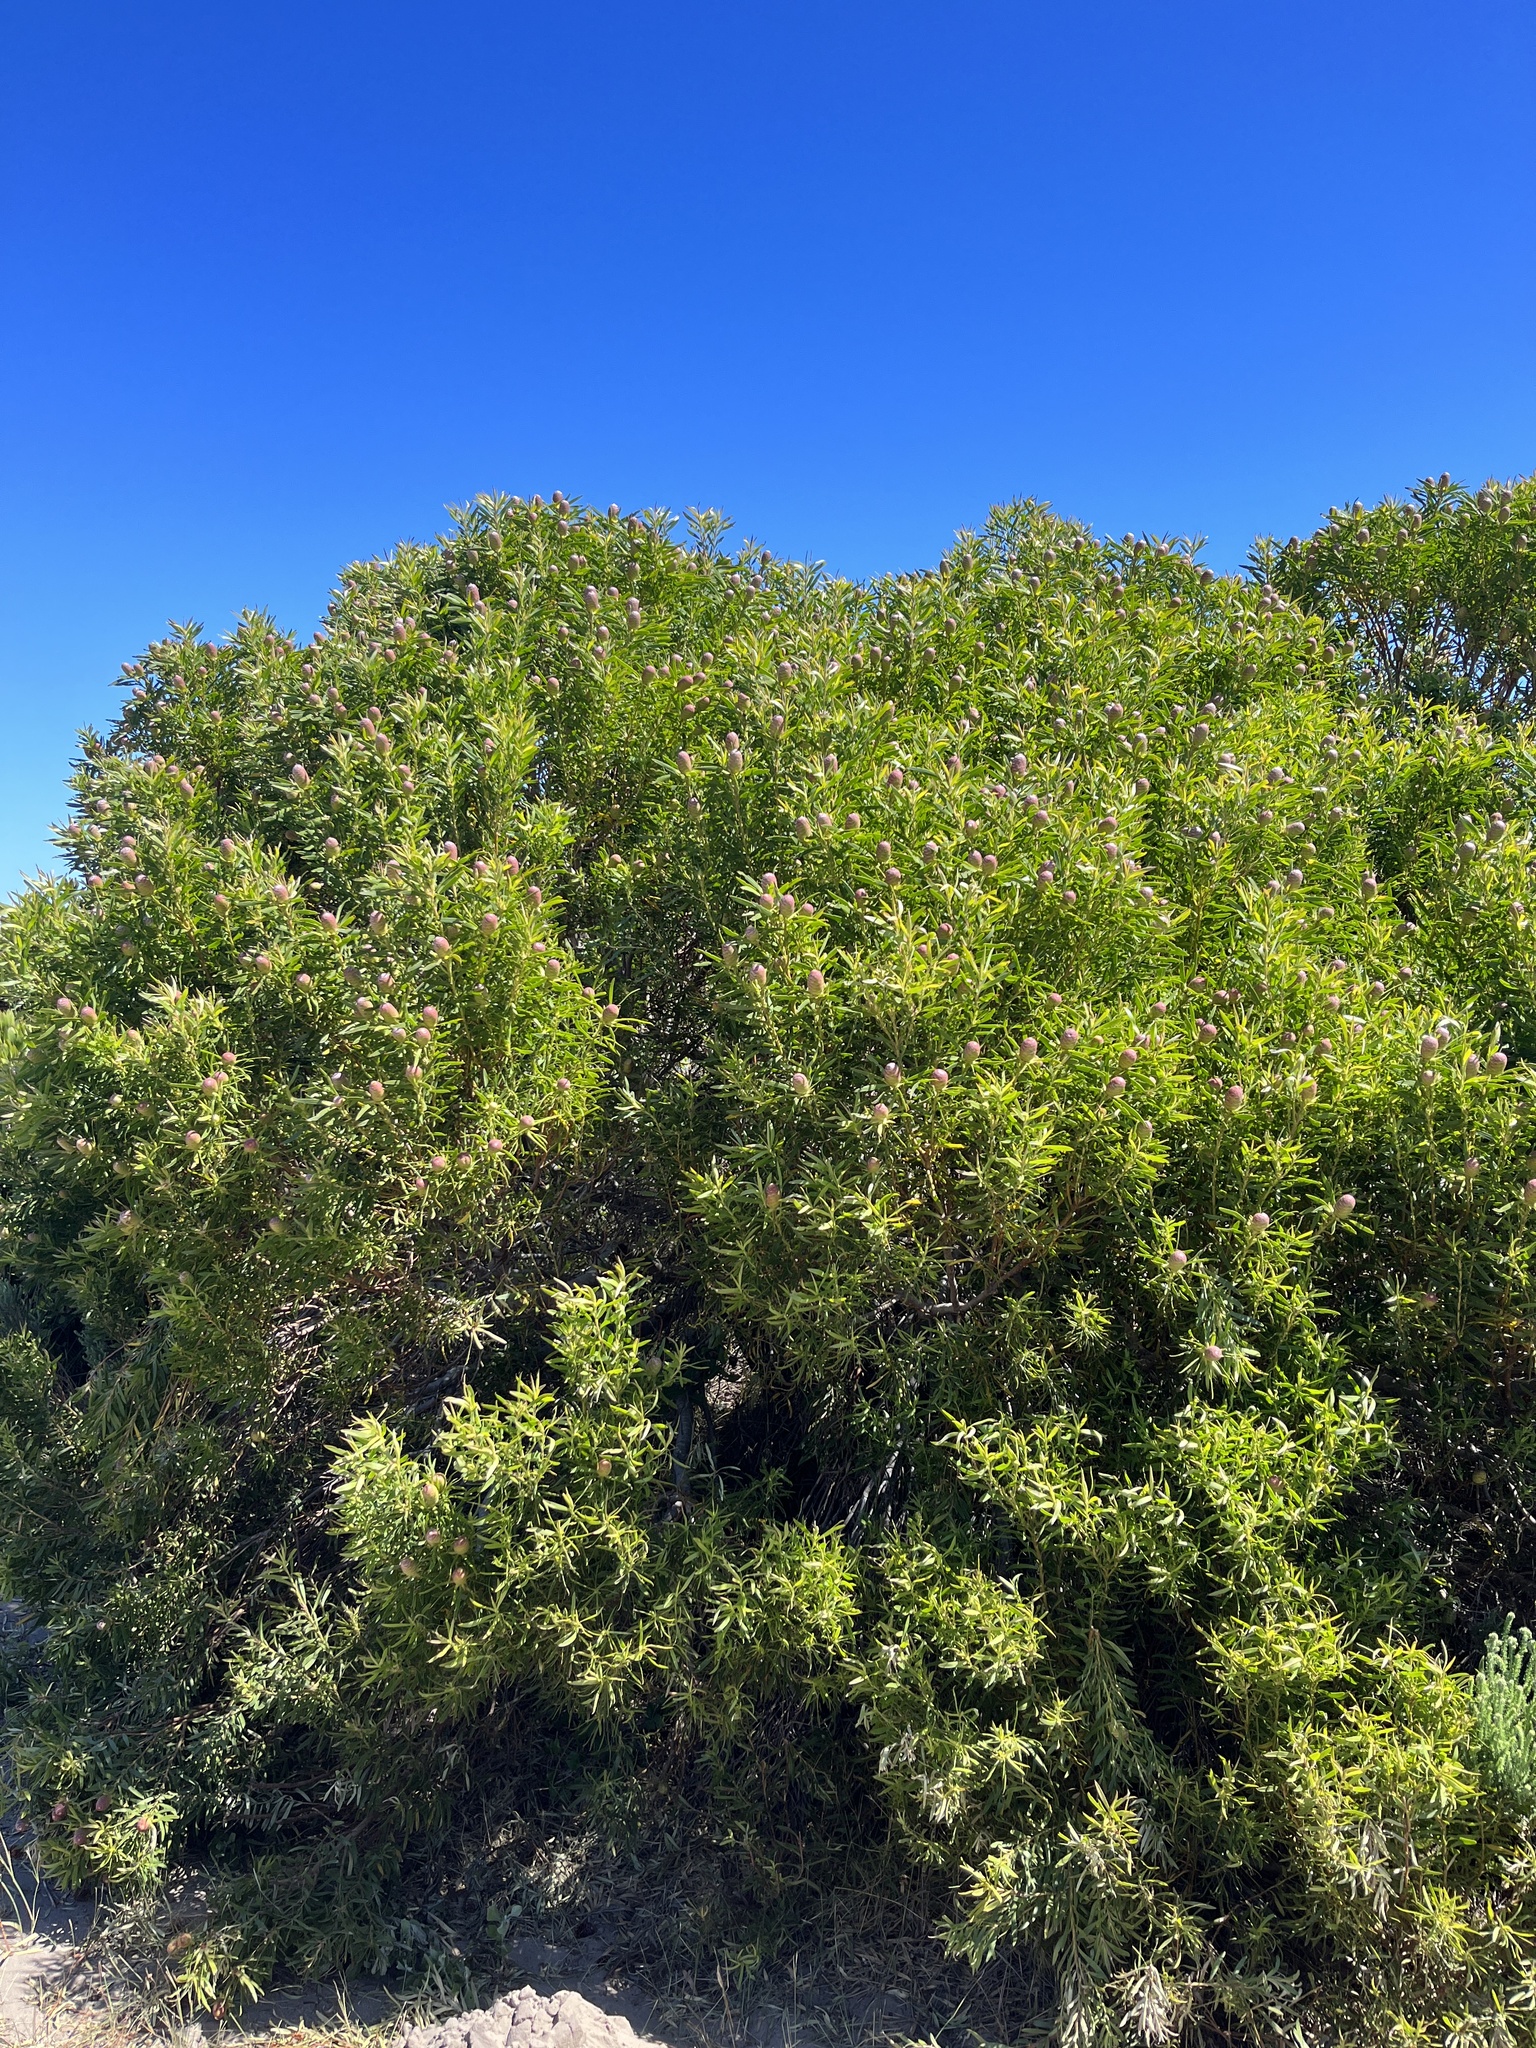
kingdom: Plantae
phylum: Tracheophyta
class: Magnoliopsida
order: Proteales
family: Proteaceae
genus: Leucadendron
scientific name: Leucadendron coniferum
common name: Dune conebush
